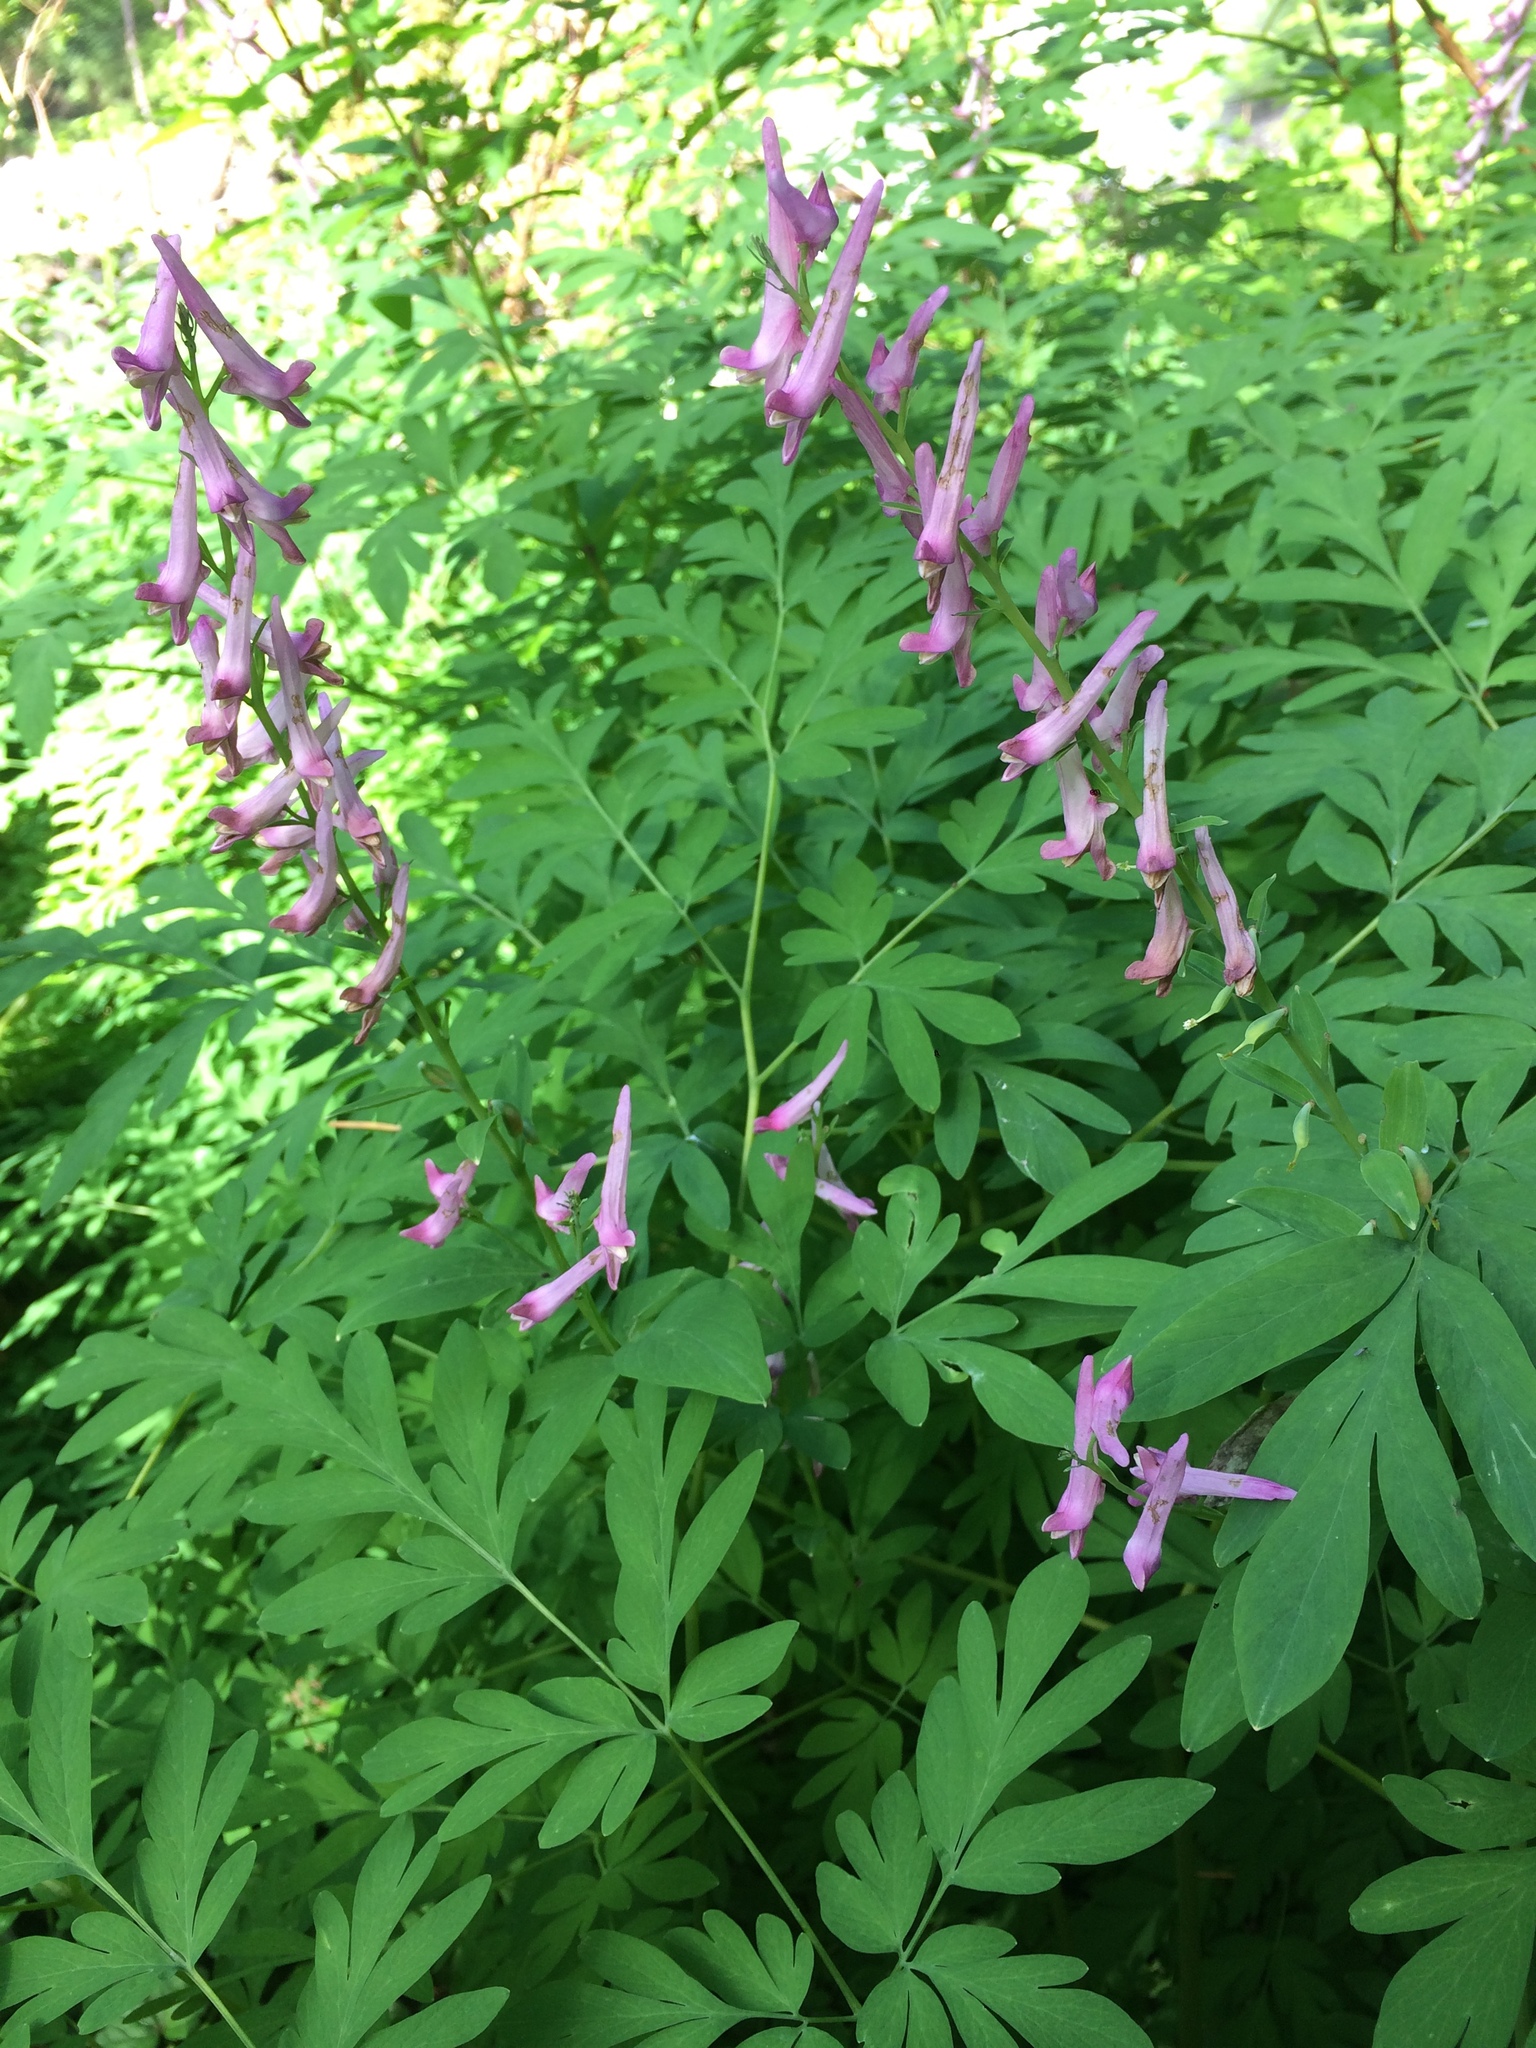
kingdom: Plantae
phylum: Tracheophyta
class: Magnoliopsida
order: Ranunculales
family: Papaveraceae
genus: Corydalis
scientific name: Corydalis scouleri
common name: Scouler's corydalis
